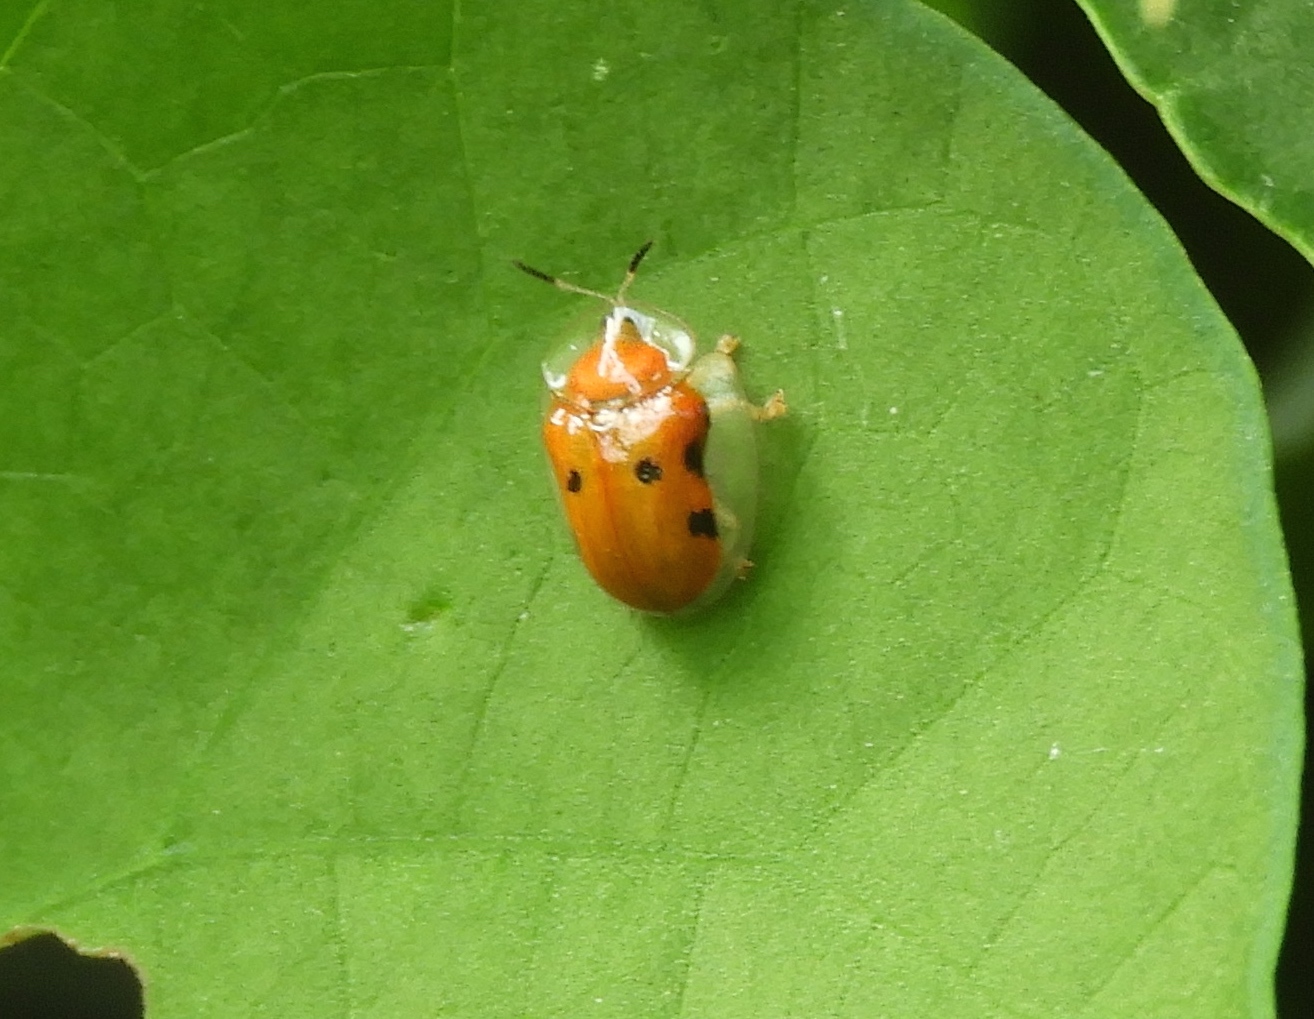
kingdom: Animalia
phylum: Arthropoda
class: Insecta
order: Coleoptera
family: Chrysomelidae
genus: Charidotella
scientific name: Charidotella sexpunctata
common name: Golden tortoise beetle
